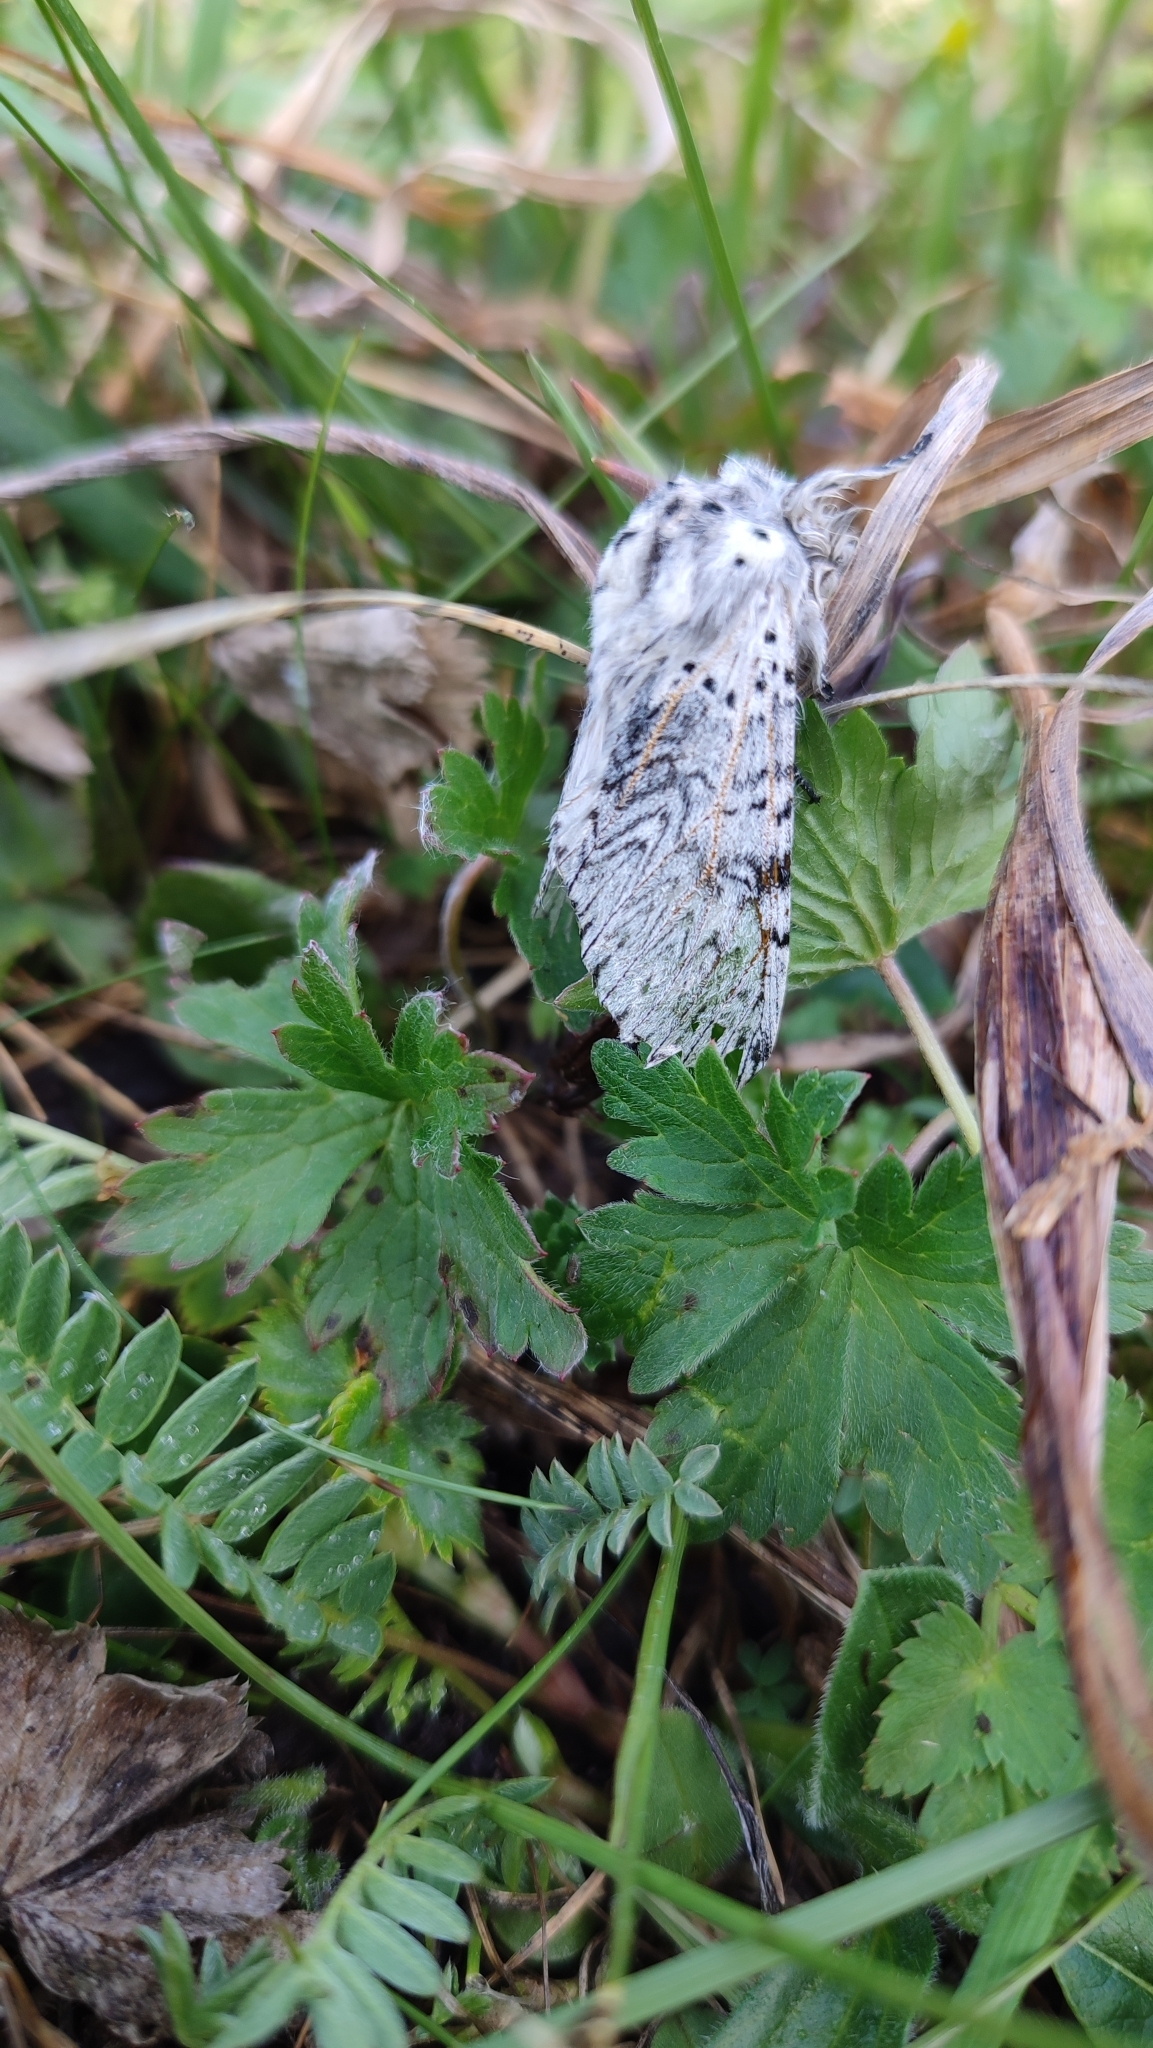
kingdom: Animalia
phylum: Arthropoda
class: Insecta
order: Lepidoptera
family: Notodontidae
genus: Cerura
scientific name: Cerura vinula
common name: Puss moth
